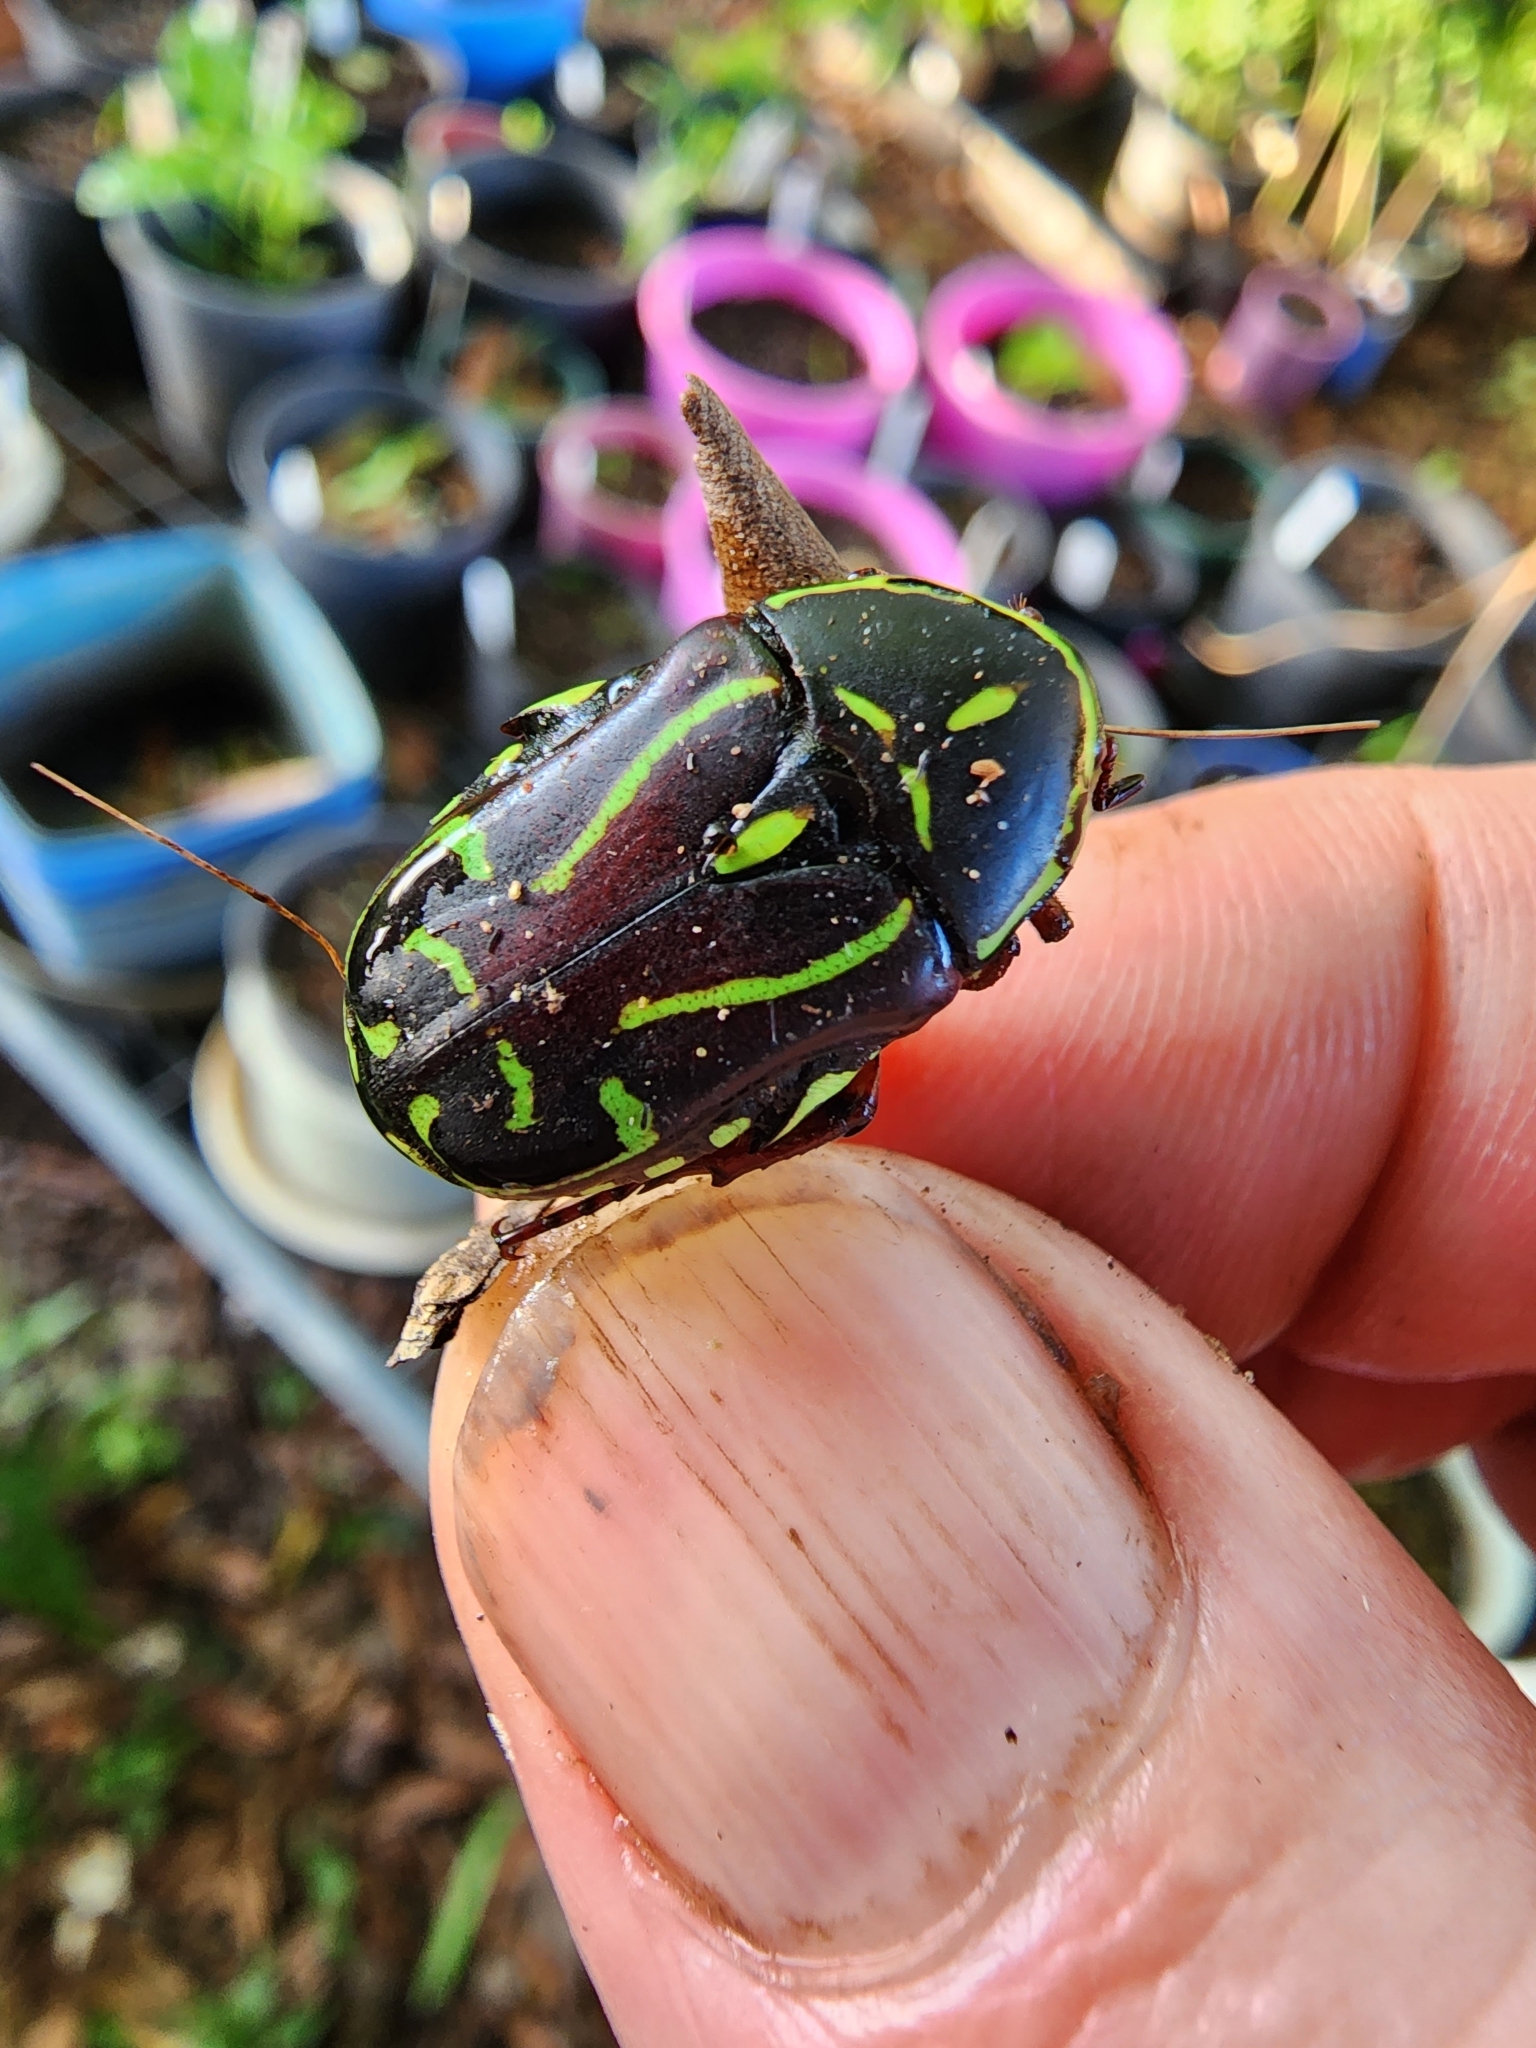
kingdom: Animalia
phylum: Arthropoda
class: Insecta
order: Coleoptera
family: Scarabaeidae
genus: Eupoecila
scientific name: Eupoecila australasiae
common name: Fiddler beetle
